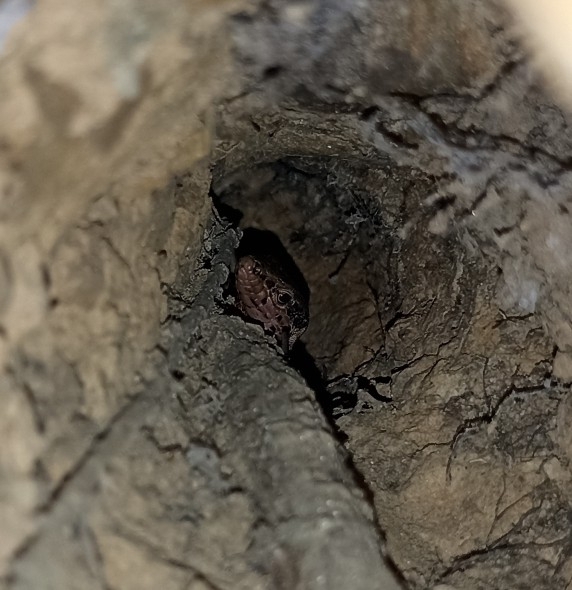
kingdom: Animalia
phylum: Chordata
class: Squamata
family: Lacertidae
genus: Podarcis
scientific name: Podarcis muralis
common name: Common wall lizard
